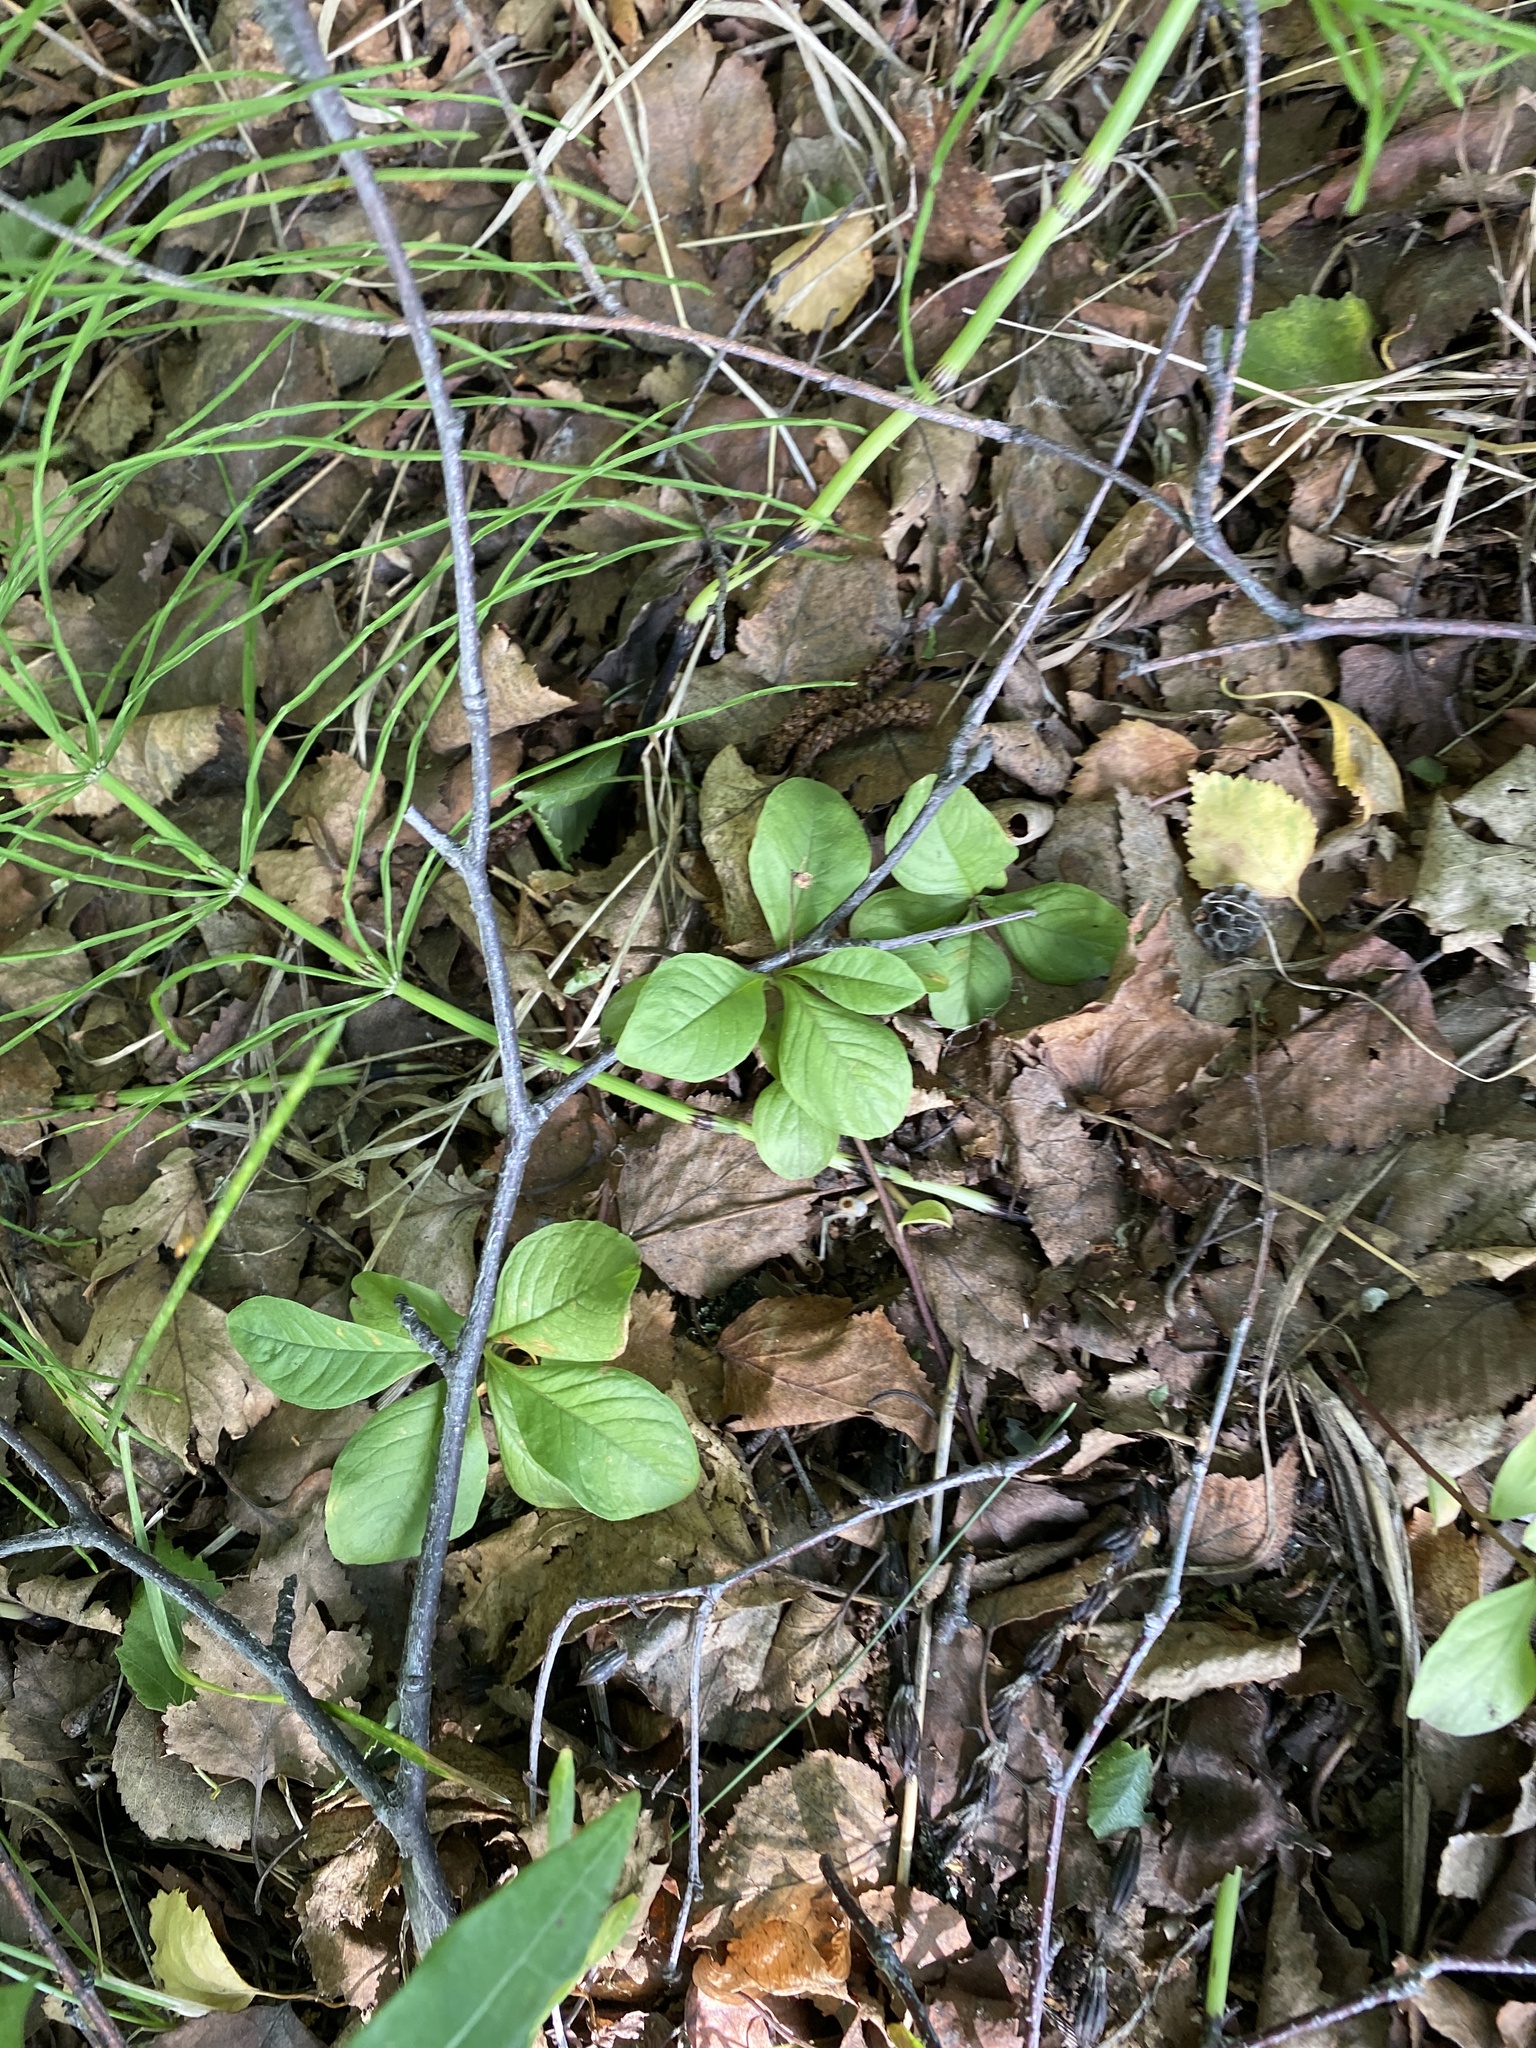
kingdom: Plantae
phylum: Tracheophyta
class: Magnoliopsida
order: Ericales
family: Primulaceae
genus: Lysimachia
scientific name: Lysimachia europaea
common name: Arctic starflower
